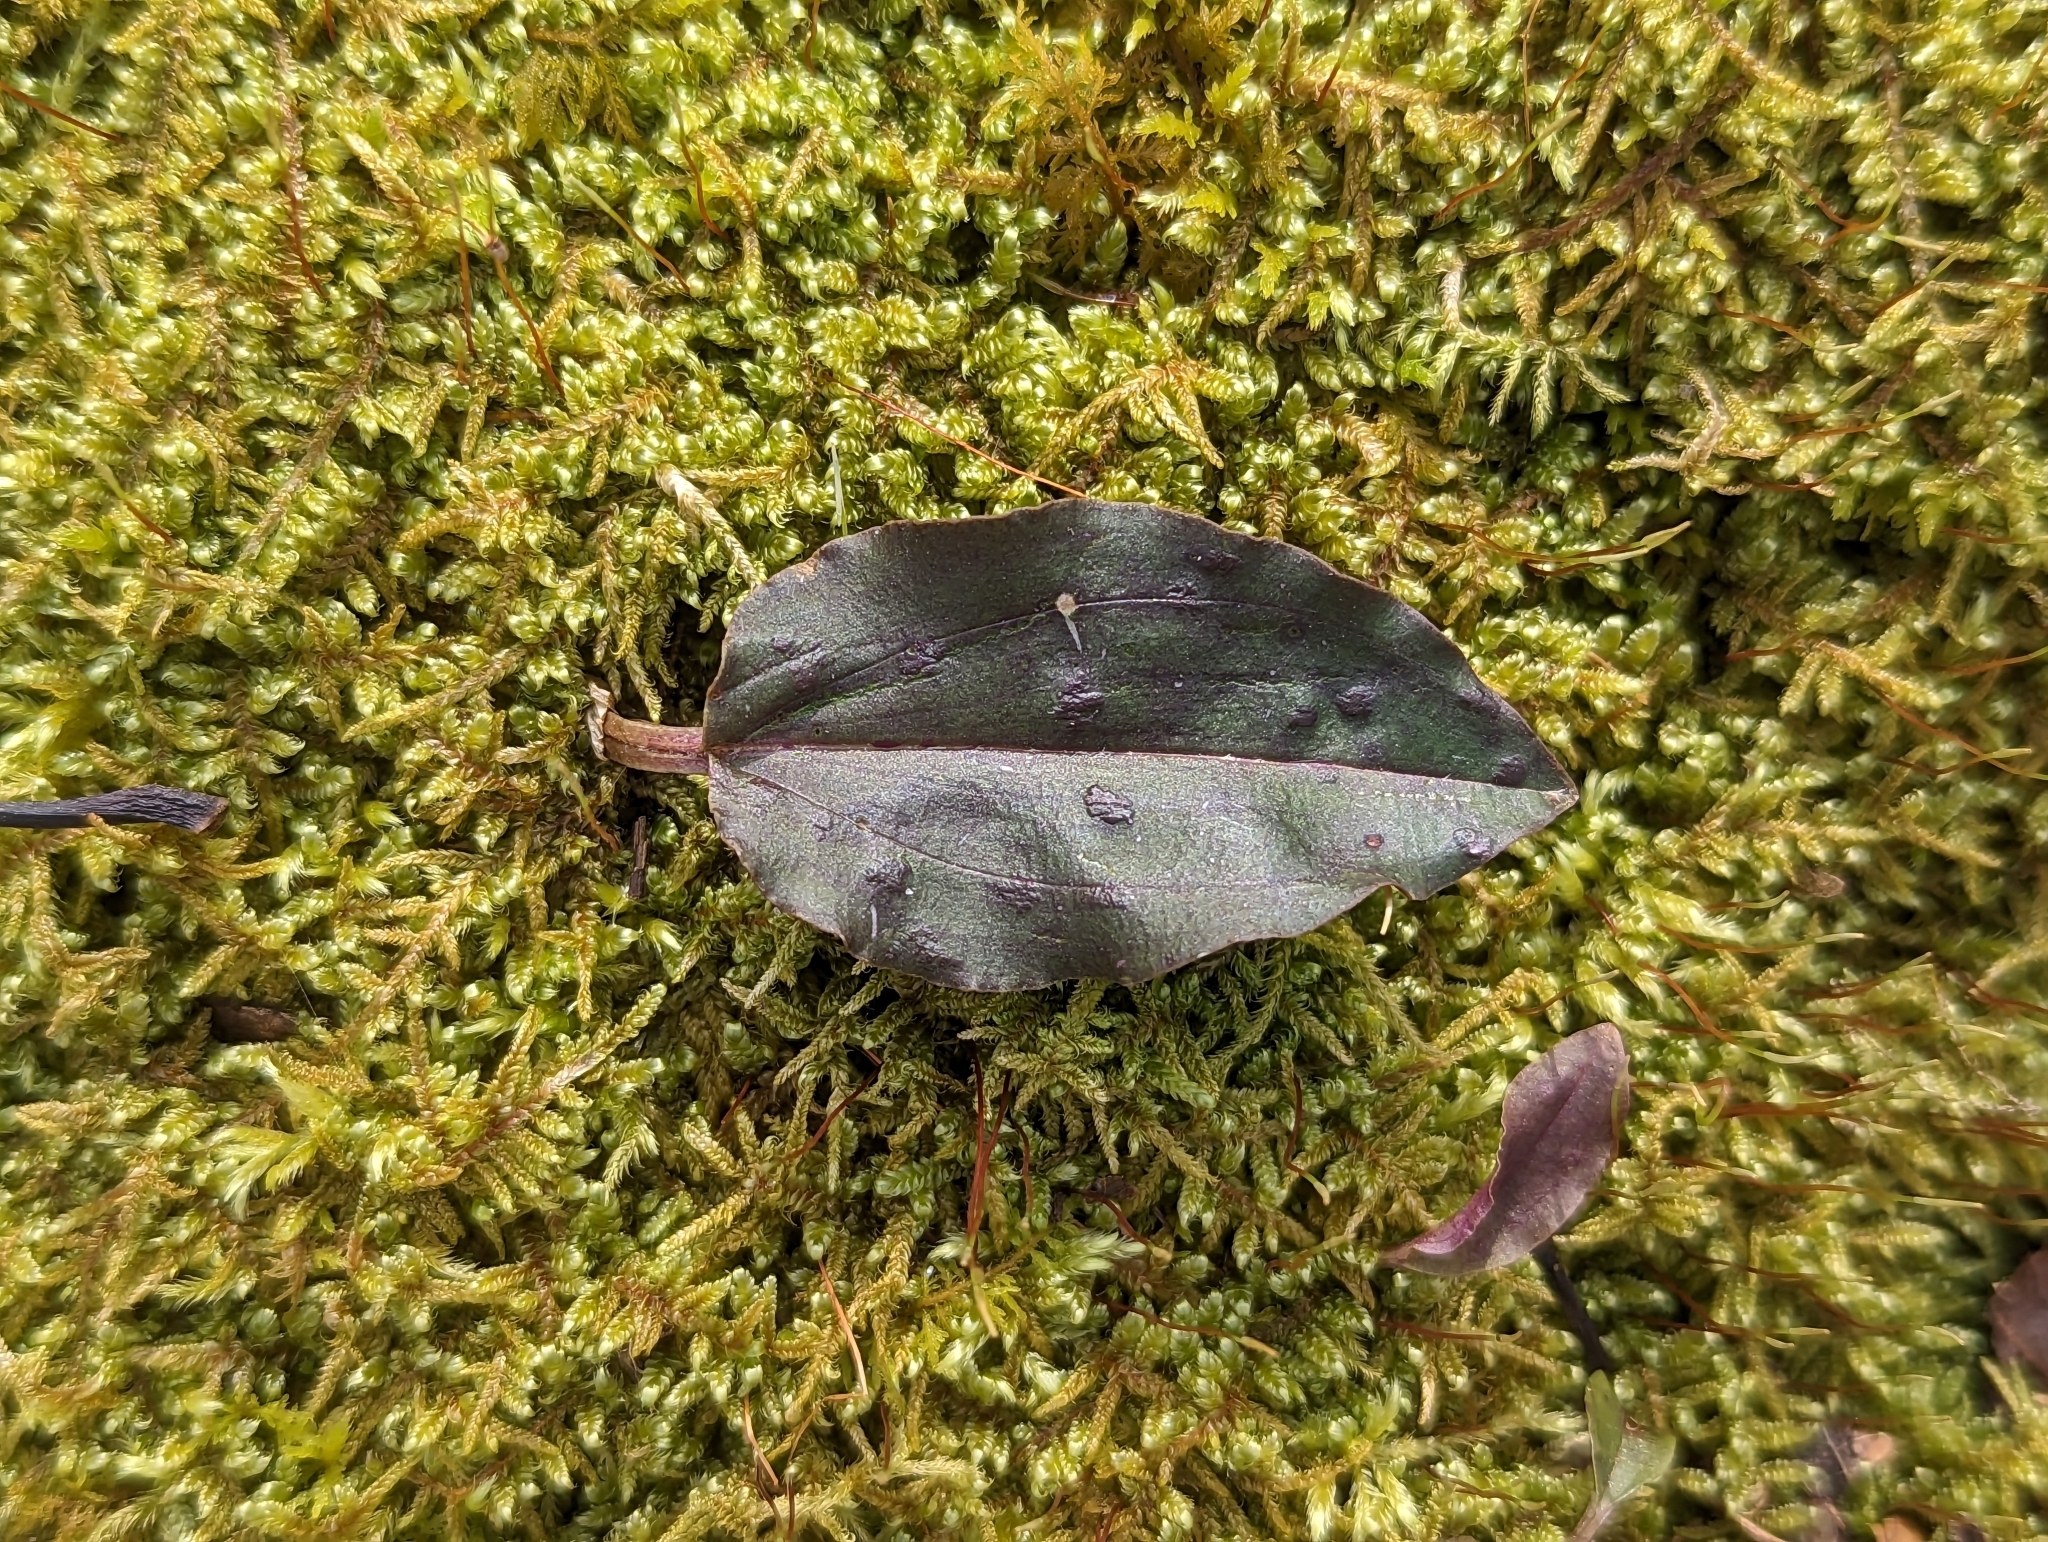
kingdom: Plantae
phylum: Tracheophyta
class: Liliopsida
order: Asparagales
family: Orchidaceae
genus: Tipularia
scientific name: Tipularia discolor
